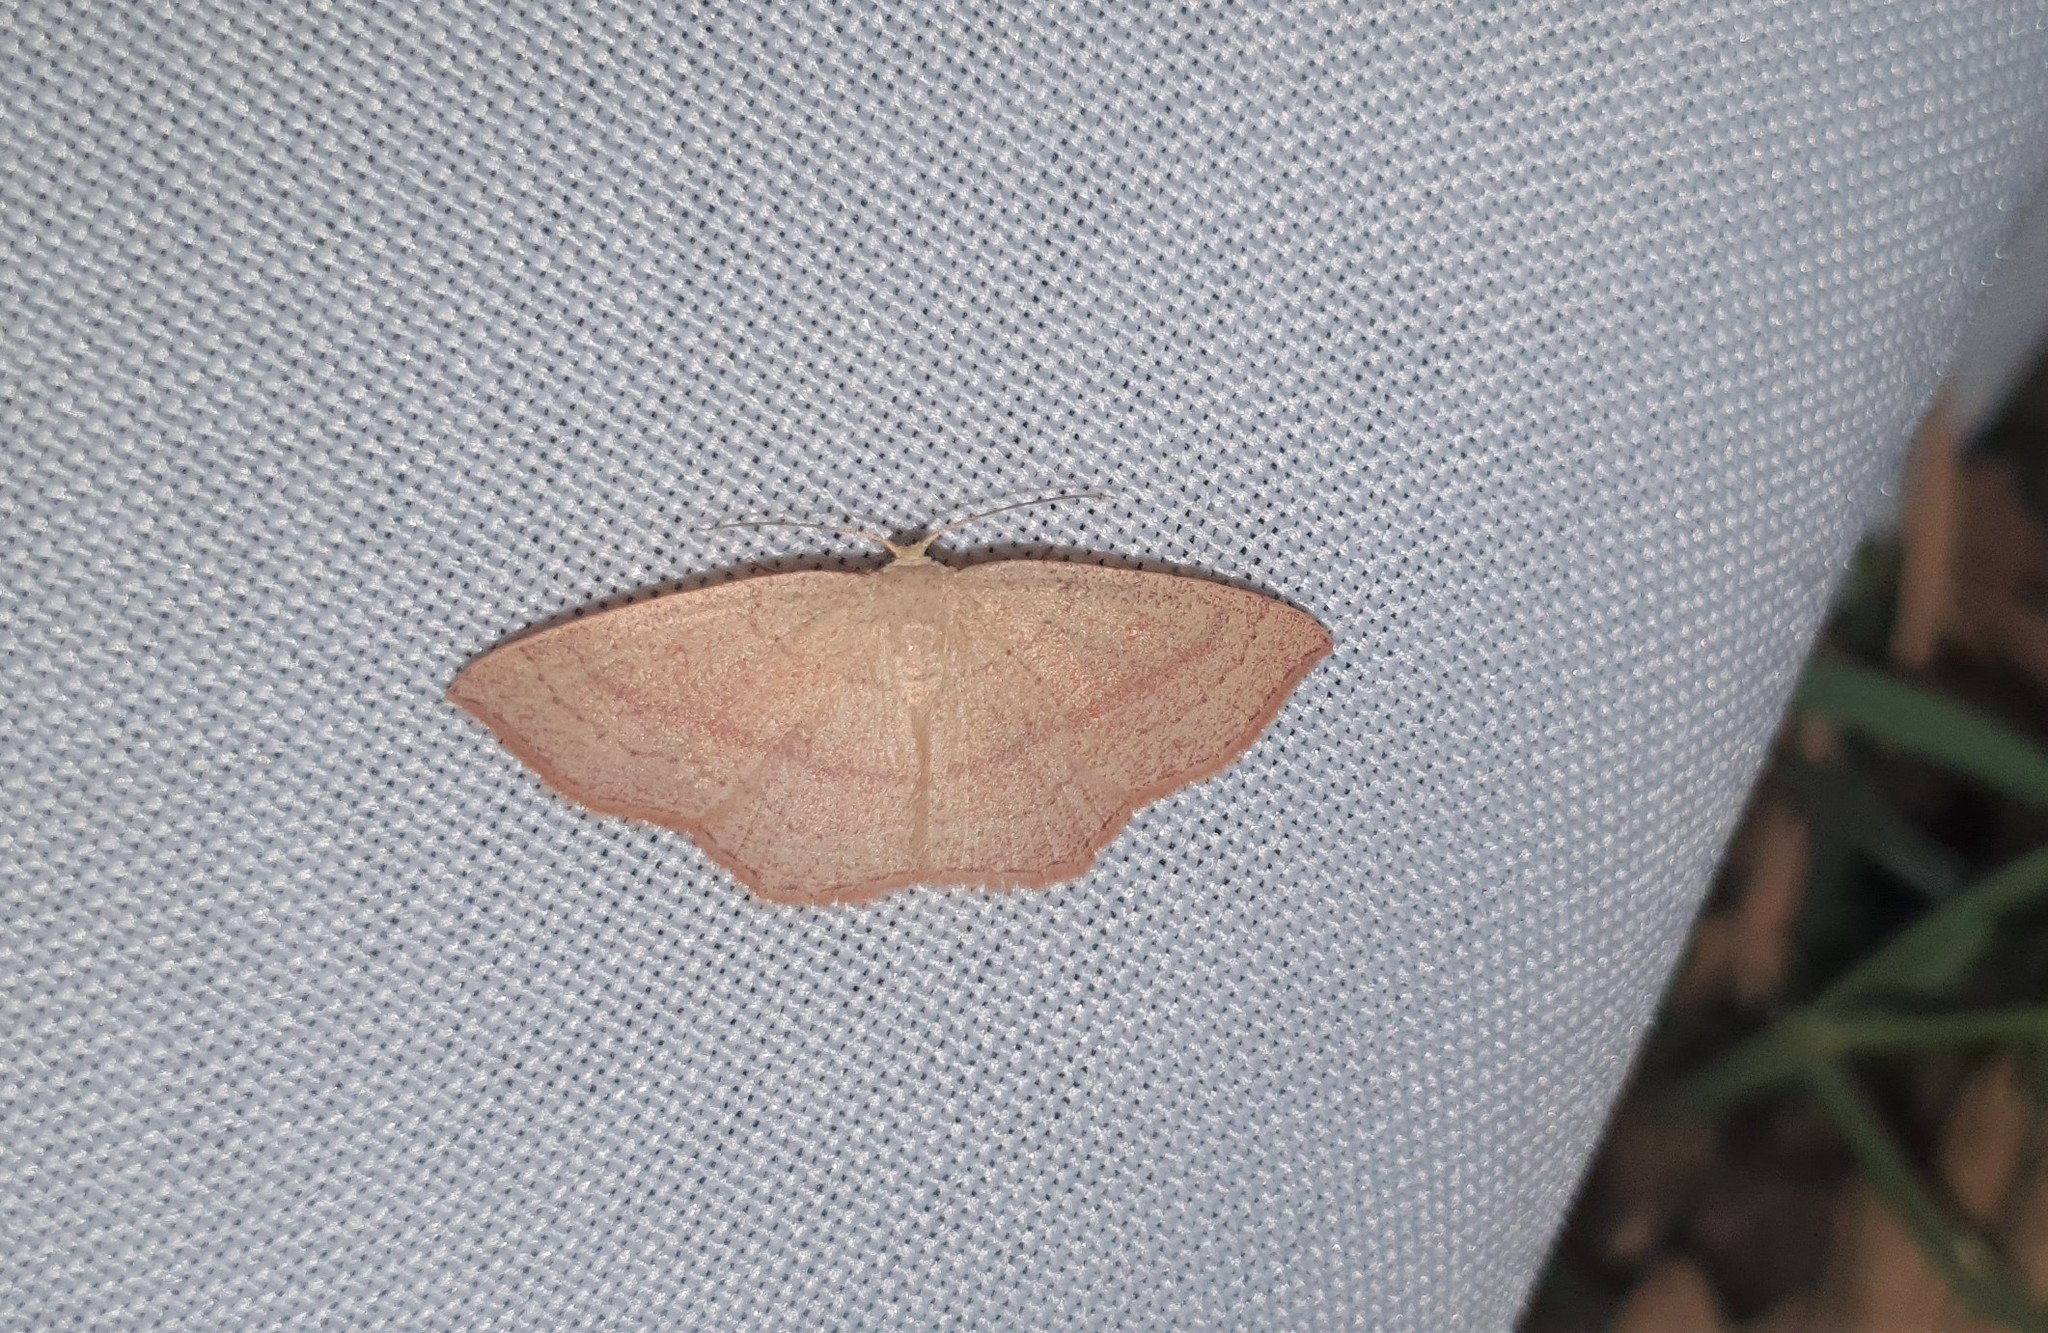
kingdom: Animalia
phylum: Arthropoda
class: Insecta
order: Lepidoptera
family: Geometridae
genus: Cyclophora
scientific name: Cyclophora linearia
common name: Clay triple-lines
